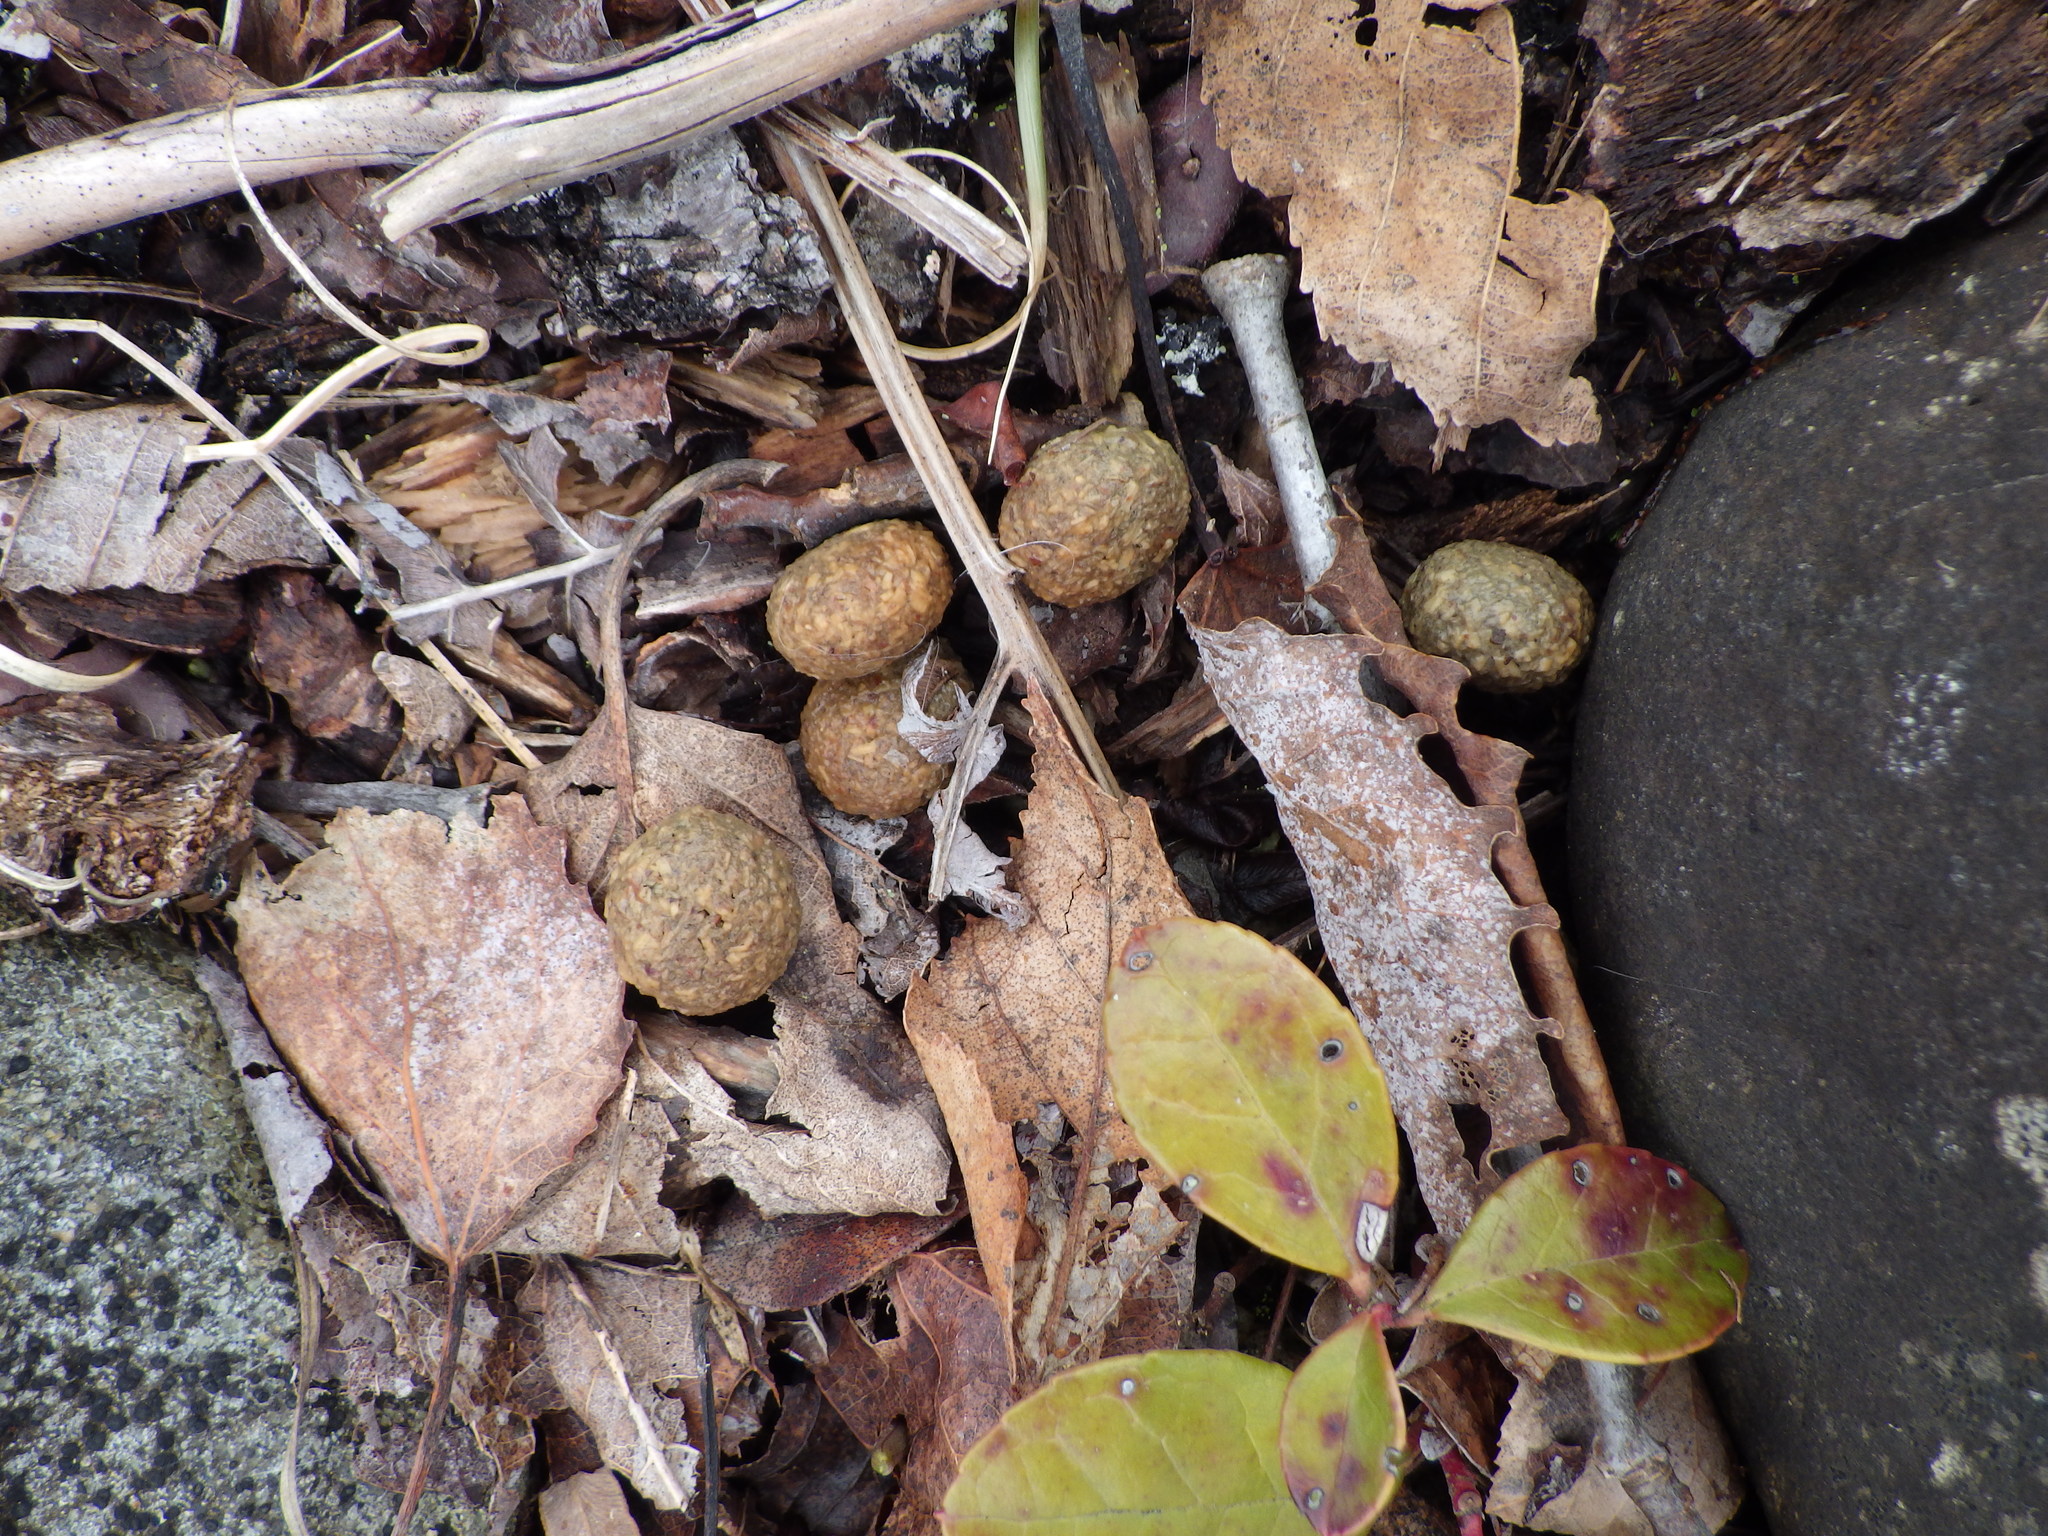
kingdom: Animalia
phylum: Chordata
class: Mammalia
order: Lagomorpha
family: Leporidae
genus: Lepus
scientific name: Lepus americanus
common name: Snowshoe hare
